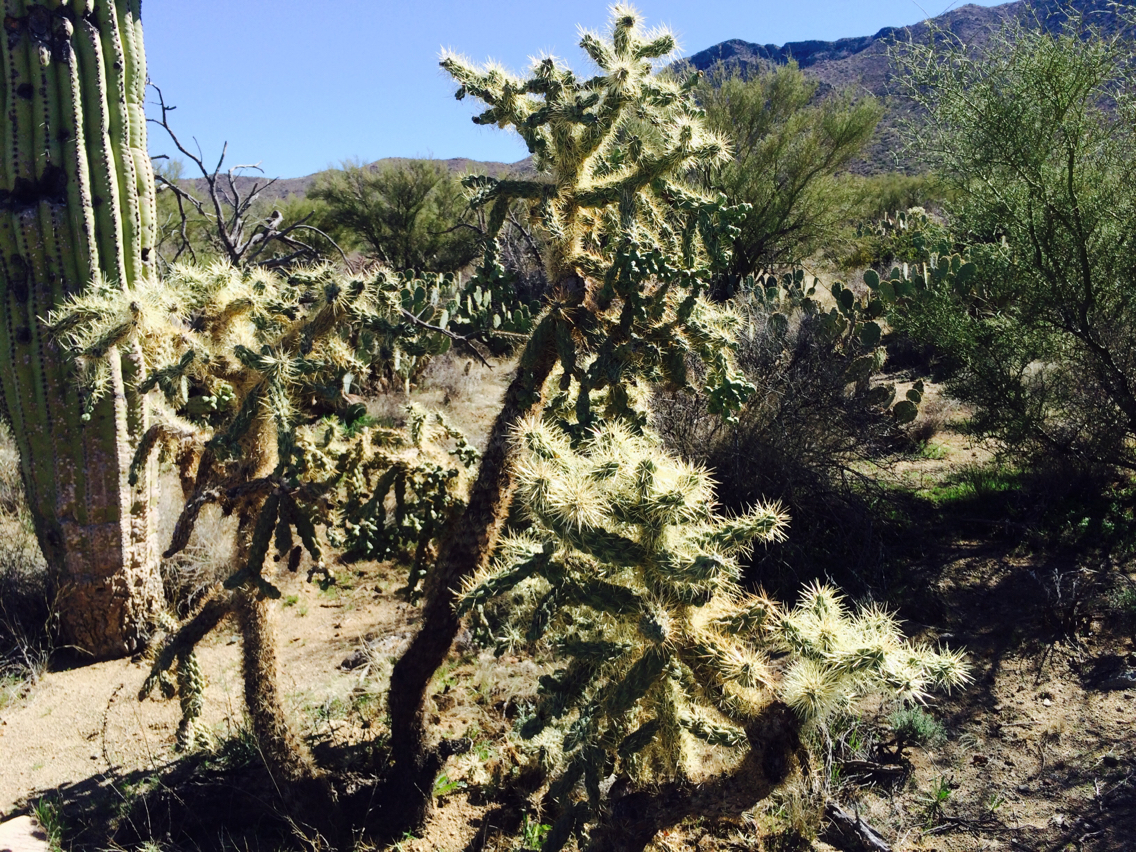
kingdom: Plantae
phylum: Tracheophyta
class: Magnoliopsida
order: Caryophyllales
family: Cactaceae
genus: Cylindropuntia
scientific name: Cylindropuntia fosbergii
